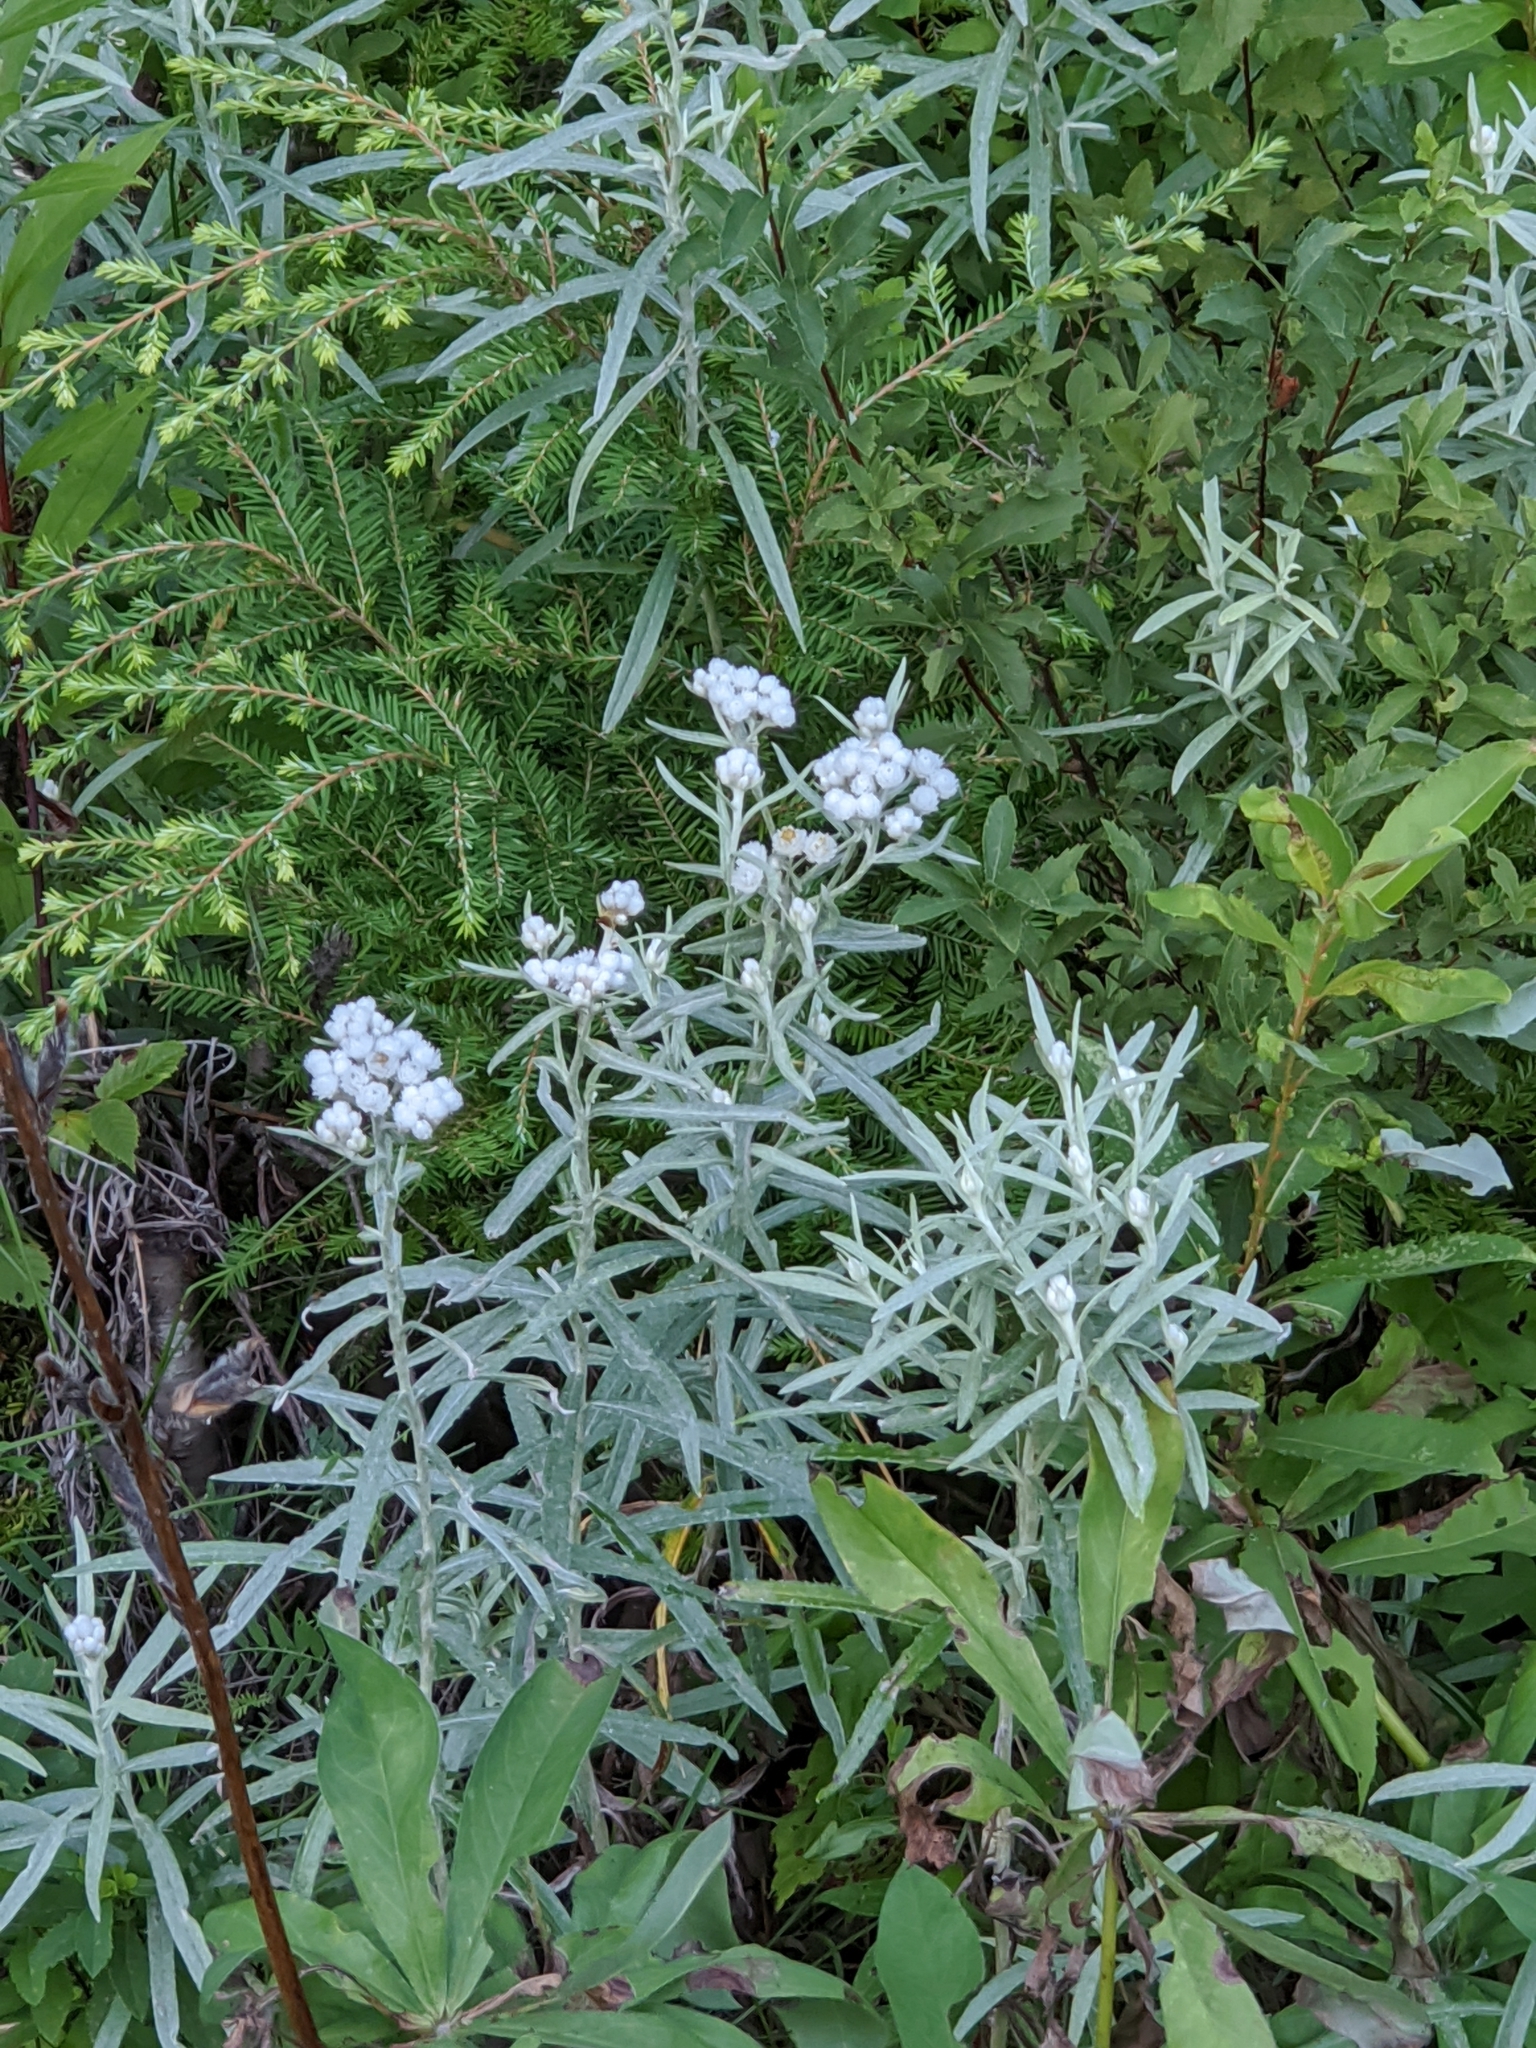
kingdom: Plantae
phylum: Tracheophyta
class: Magnoliopsida
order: Asterales
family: Asteraceae
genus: Anaphalis
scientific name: Anaphalis margaritacea
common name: Pearly everlasting
